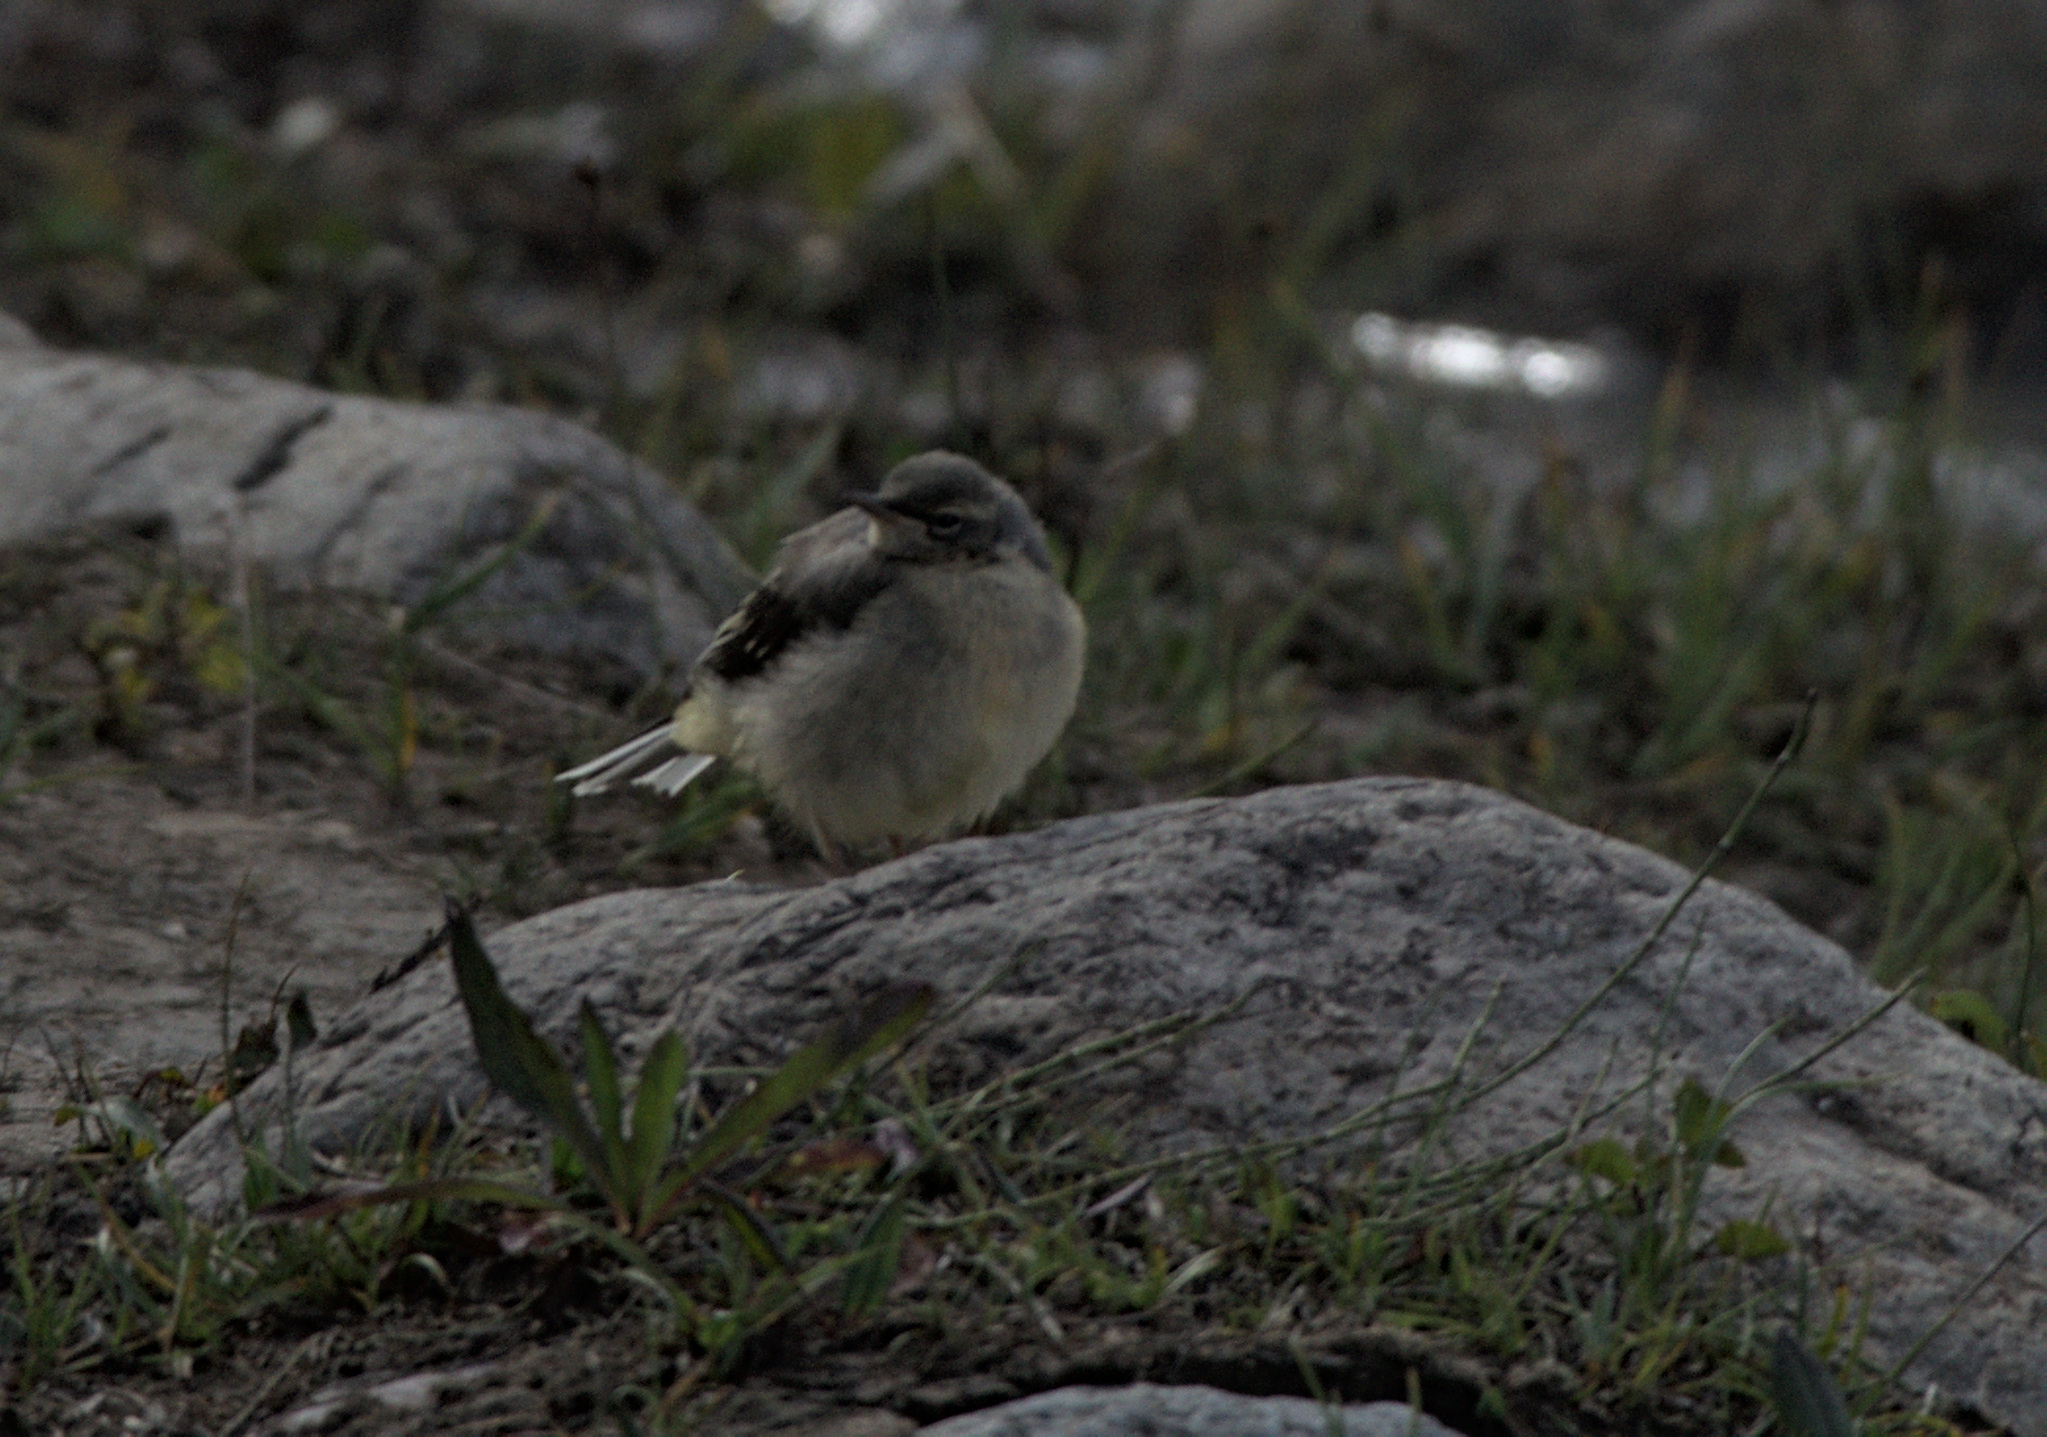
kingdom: Animalia
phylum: Chordata
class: Aves
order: Passeriformes
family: Motacillidae
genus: Motacilla
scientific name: Motacilla cinerea
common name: Grey wagtail
